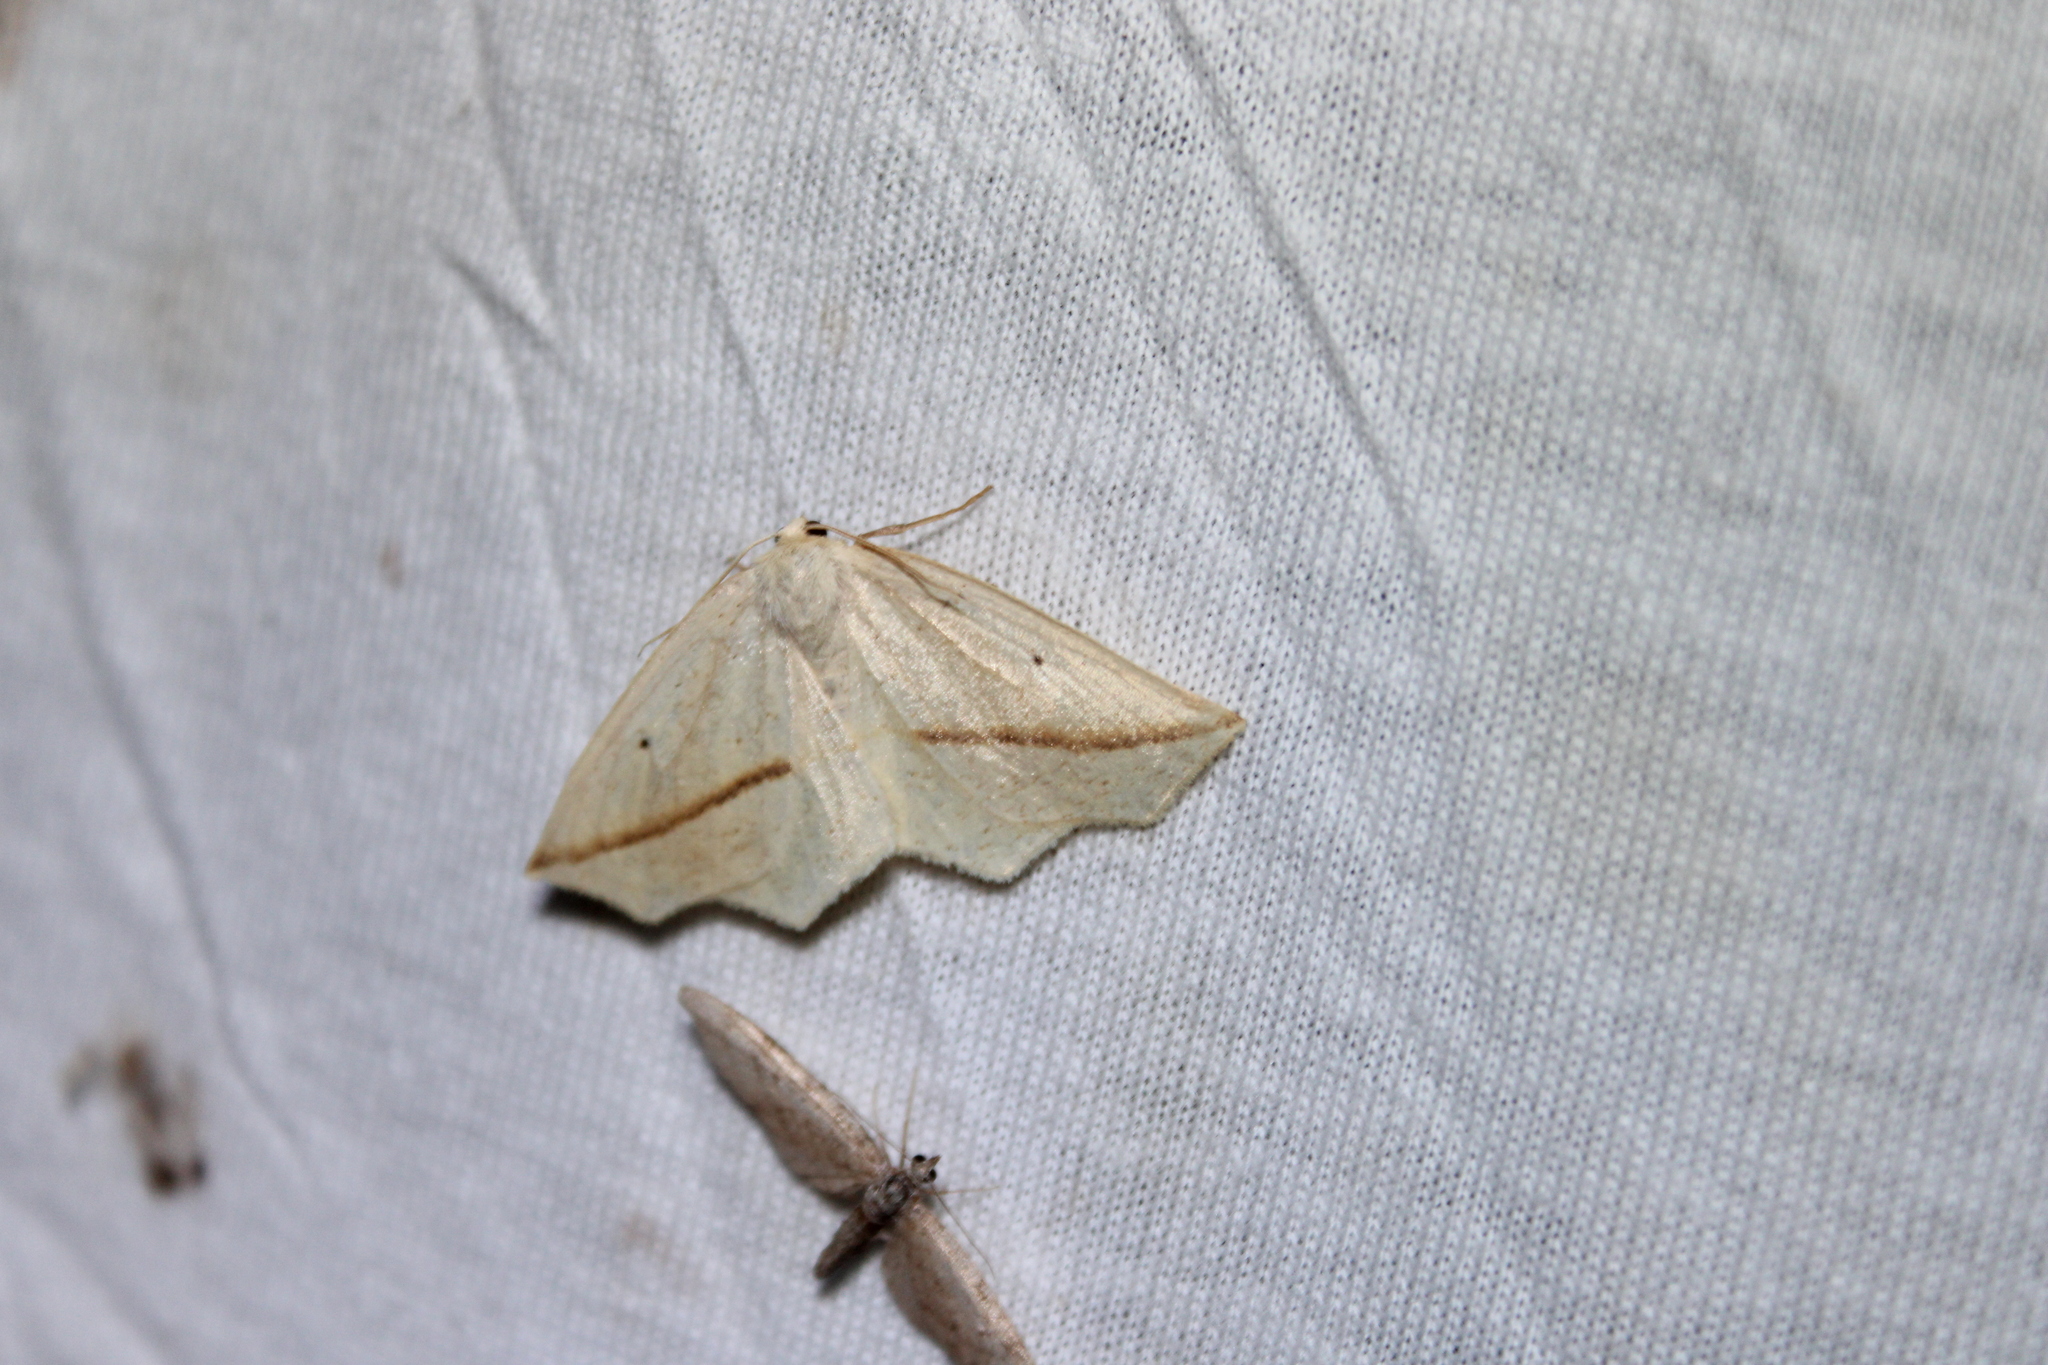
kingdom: Animalia
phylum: Arthropoda
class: Insecta
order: Lepidoptera
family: Geometridae
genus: Tetracis
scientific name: Tetracis crocallata
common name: Yellow slant-line
